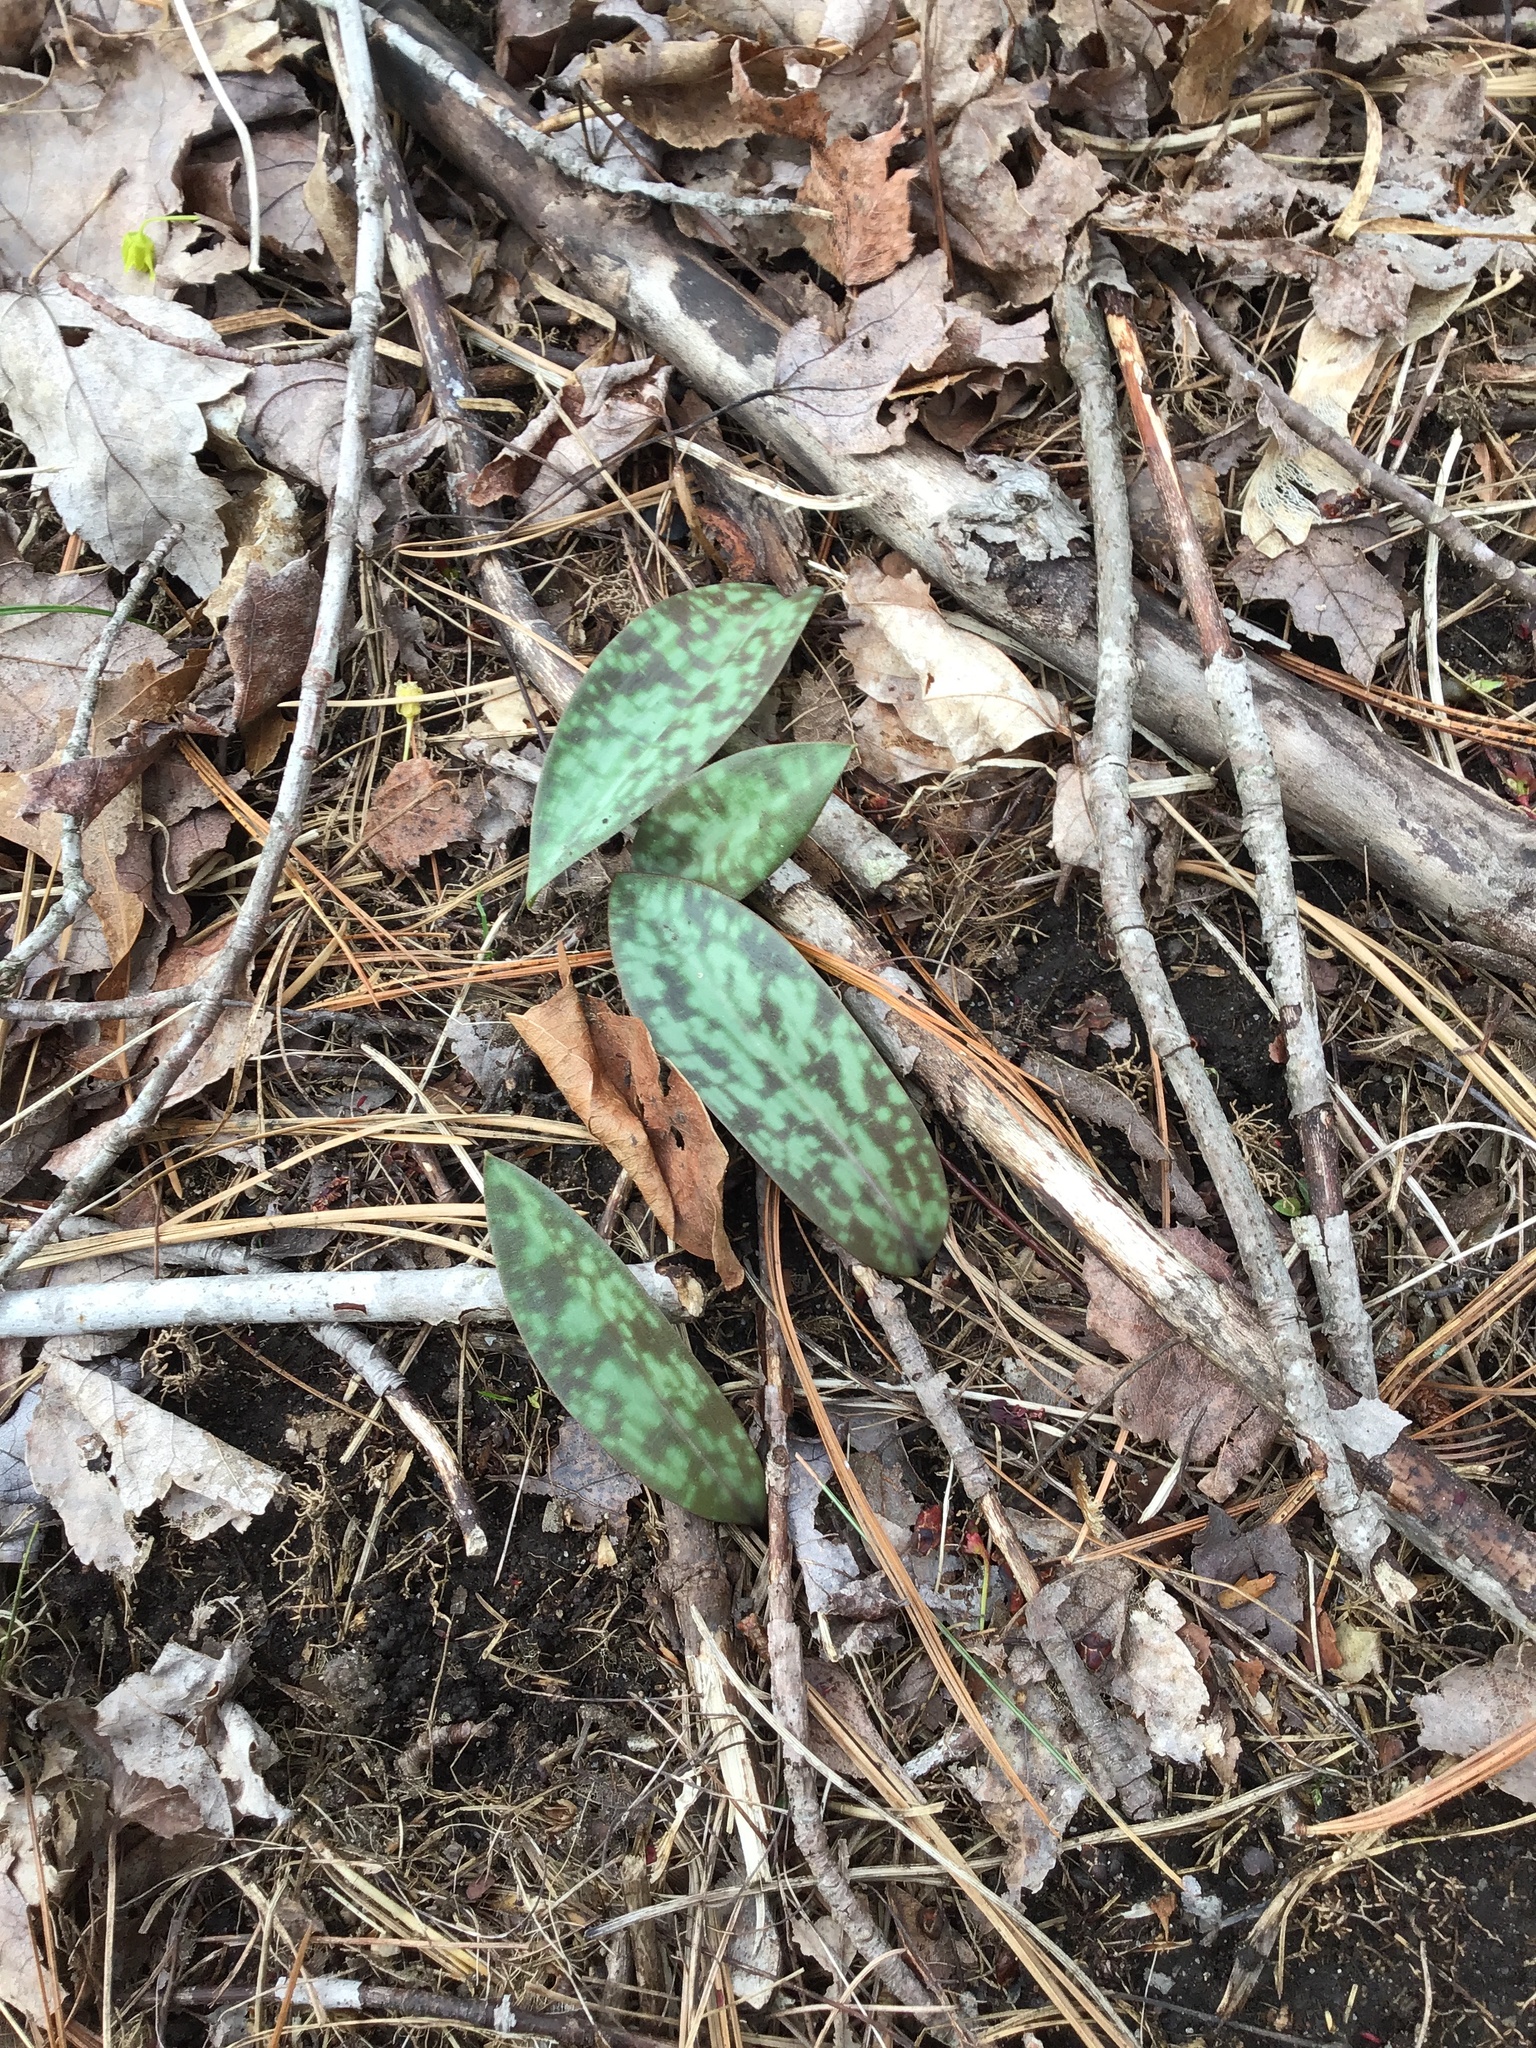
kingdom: Plantae
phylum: Tracheophyta
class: Liliopsida
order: Liliales
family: Liliaceae
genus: Erythronium
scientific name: Erythronium americanum
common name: Yellow adder's-tongue
